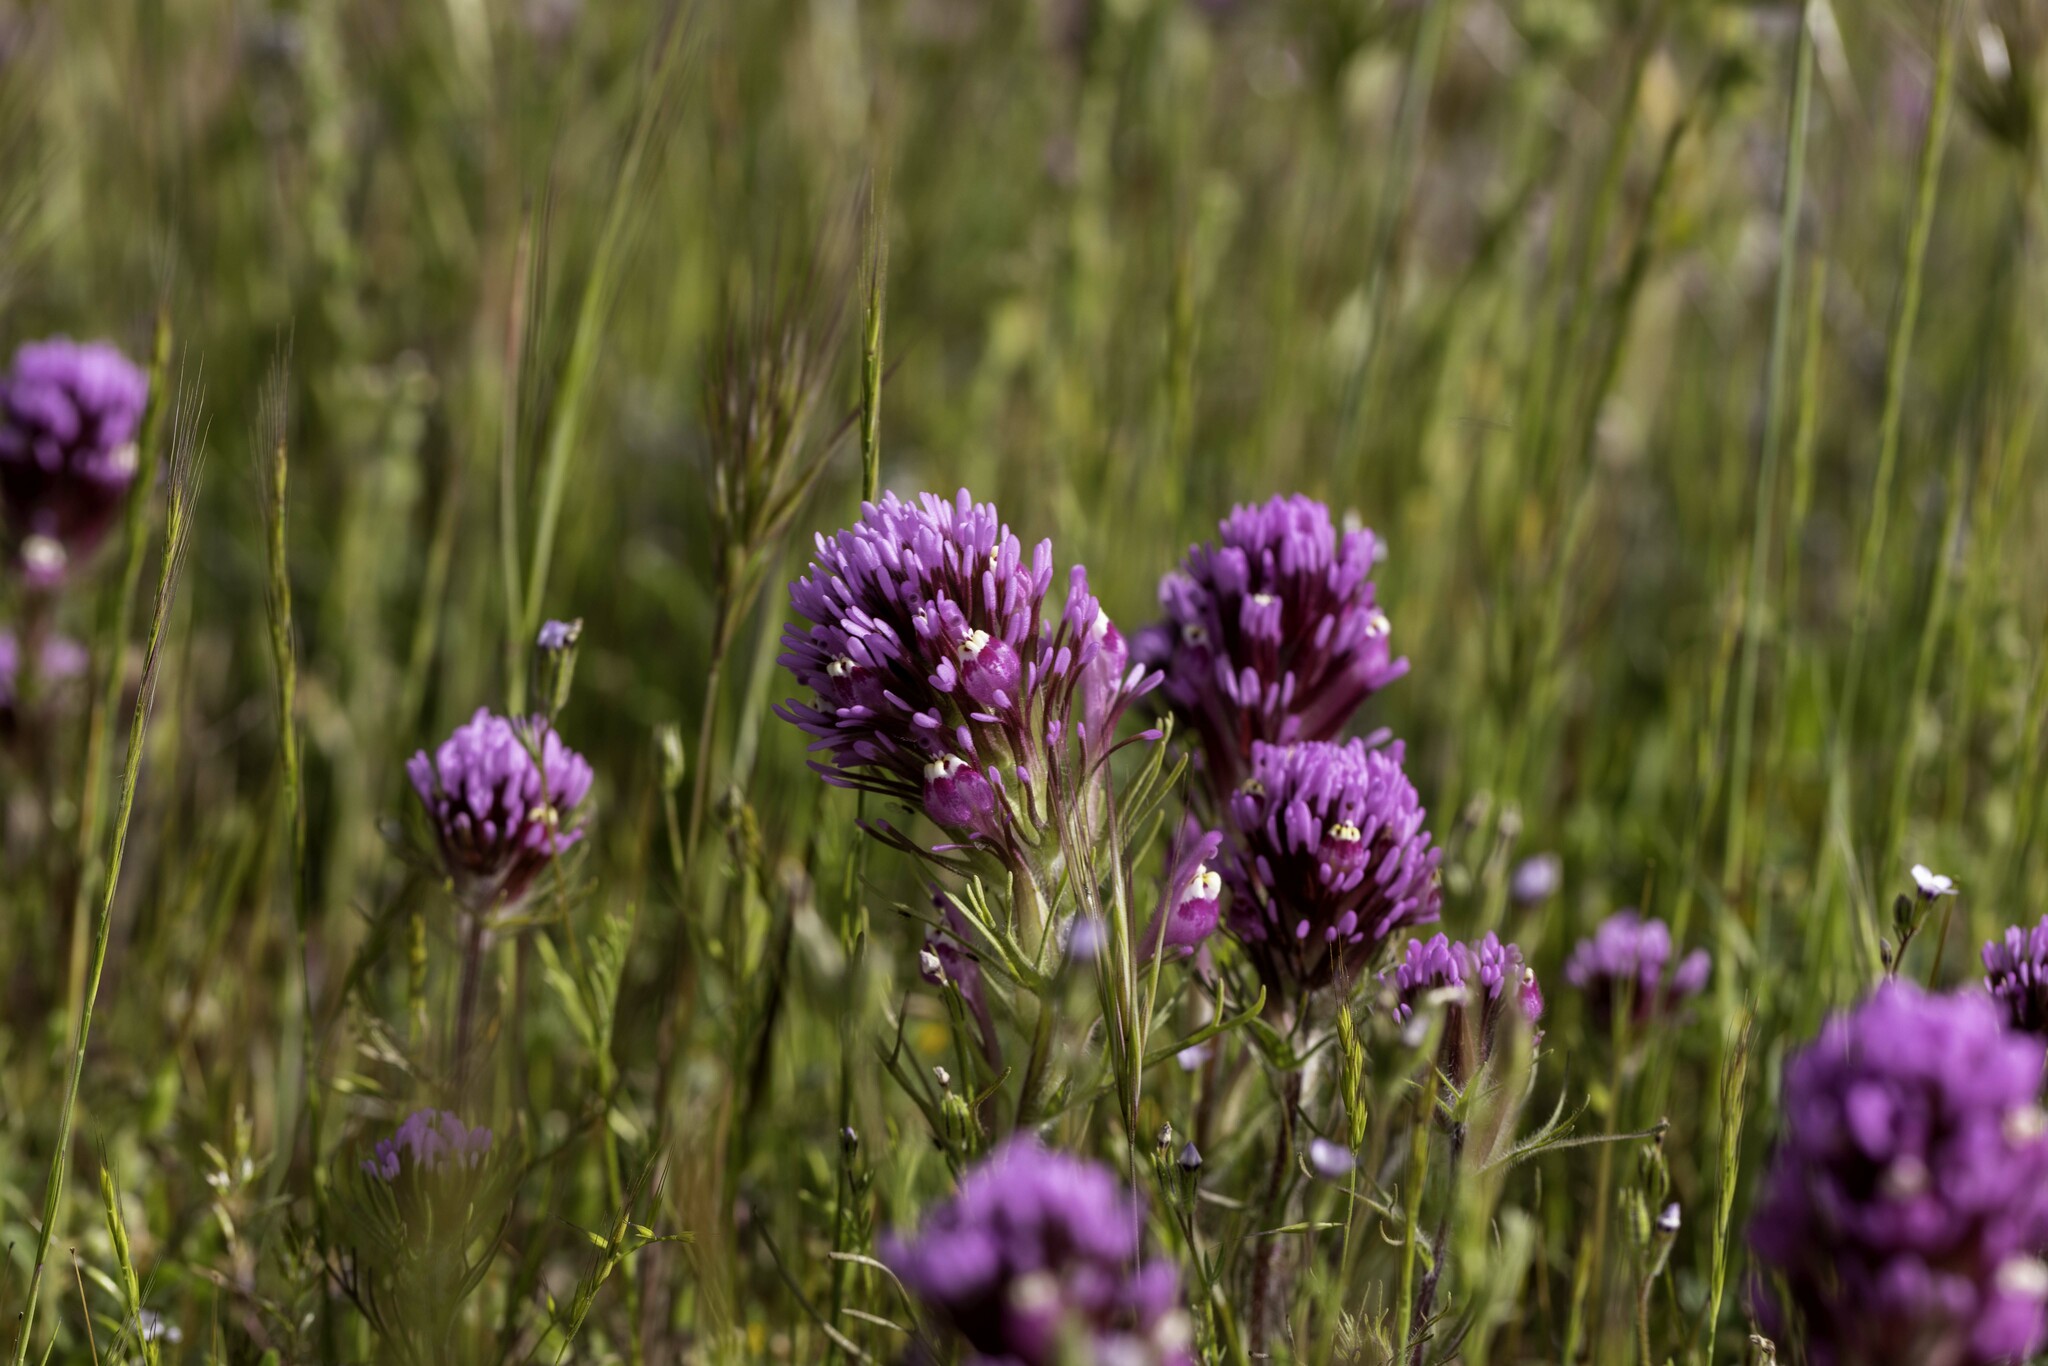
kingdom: Plantae
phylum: Tracheophyta
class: Magnoliopsida
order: Lamiales
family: Orobanchaceae
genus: Castilleja
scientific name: Castilleja exserta
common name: Purple owl-clover
